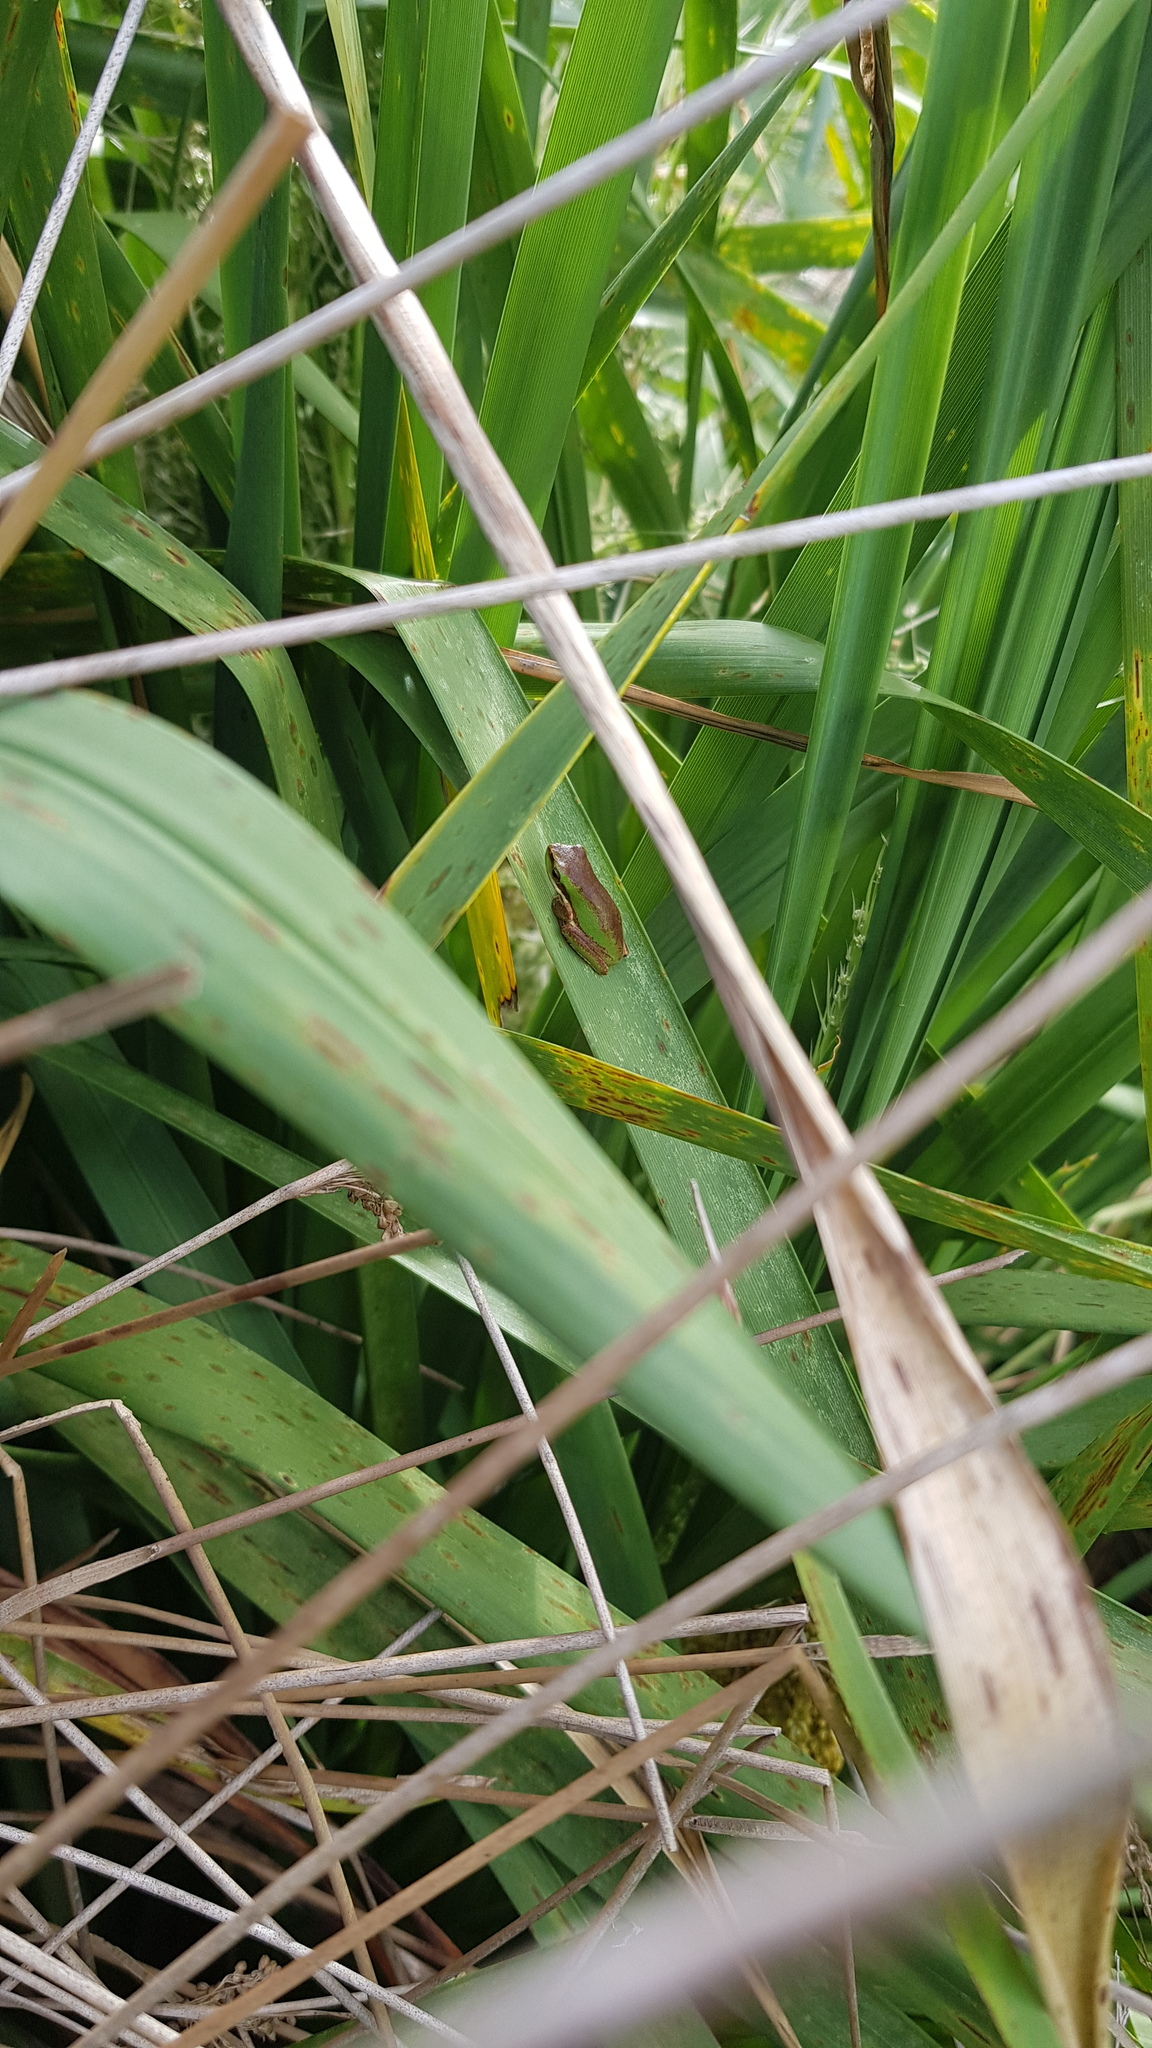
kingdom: Animalia
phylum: Chordata
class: Amphibia
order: Anura
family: Pelodryadidae
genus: Litoria
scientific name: Litoria fallax
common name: Eastern dwarf treefrog
